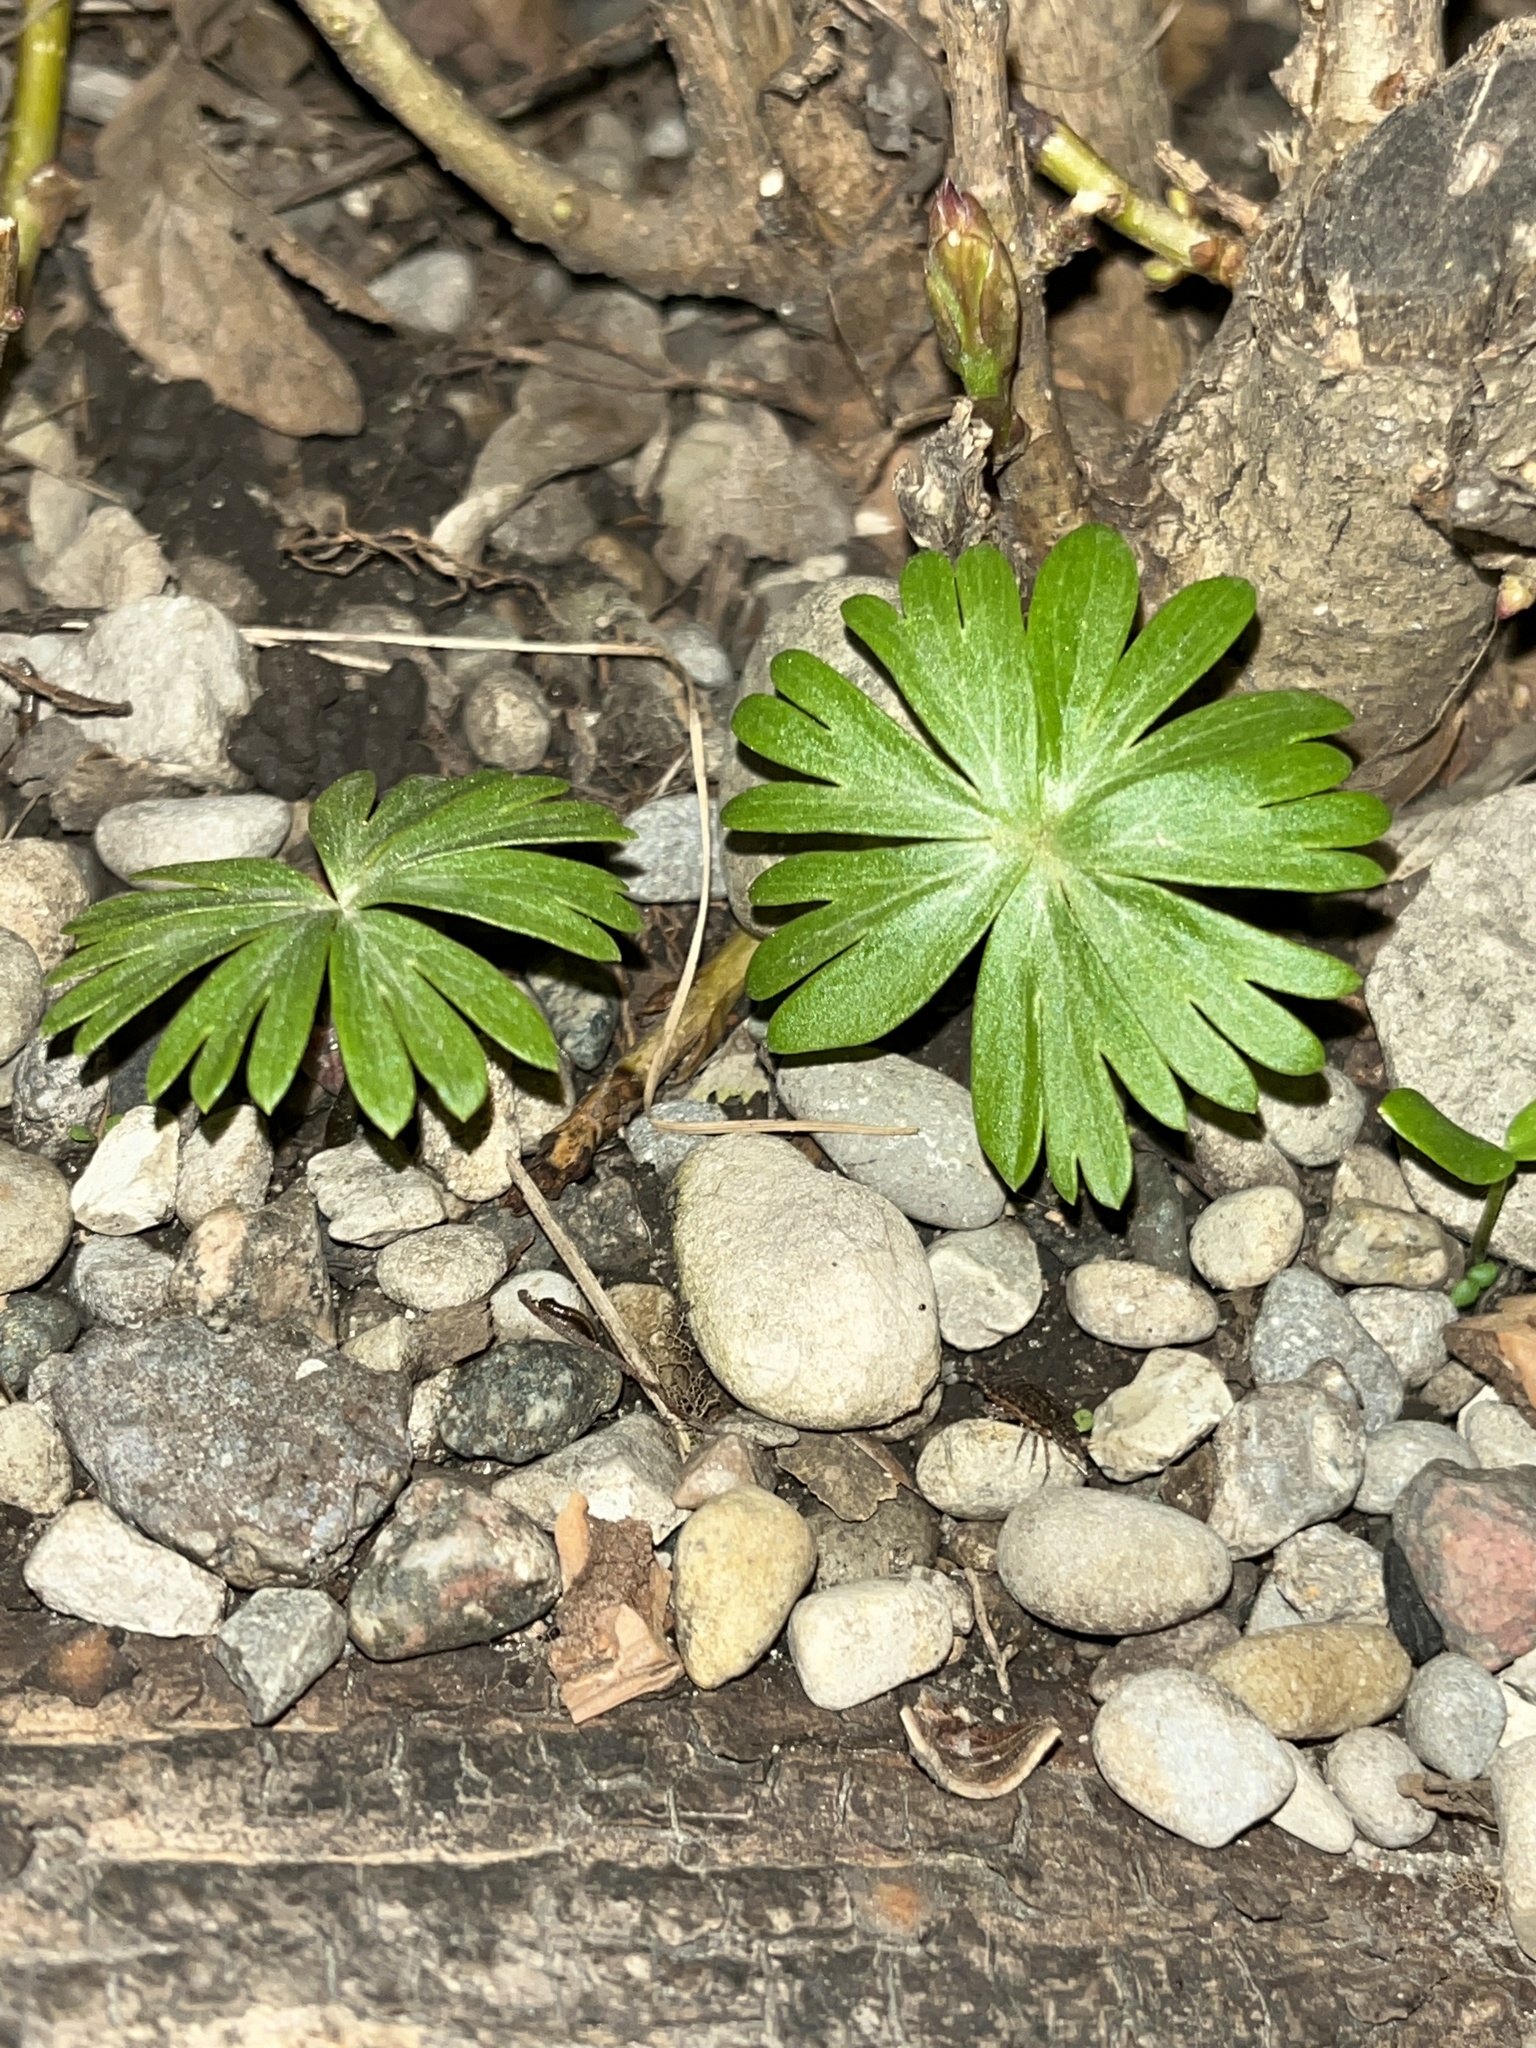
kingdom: Plantae
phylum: Tracheophyta
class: Magnoliopsida
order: Ranunculales
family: Ranunculaceae
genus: Eranthis
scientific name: Eranthis hyemalis
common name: Winter aconite
